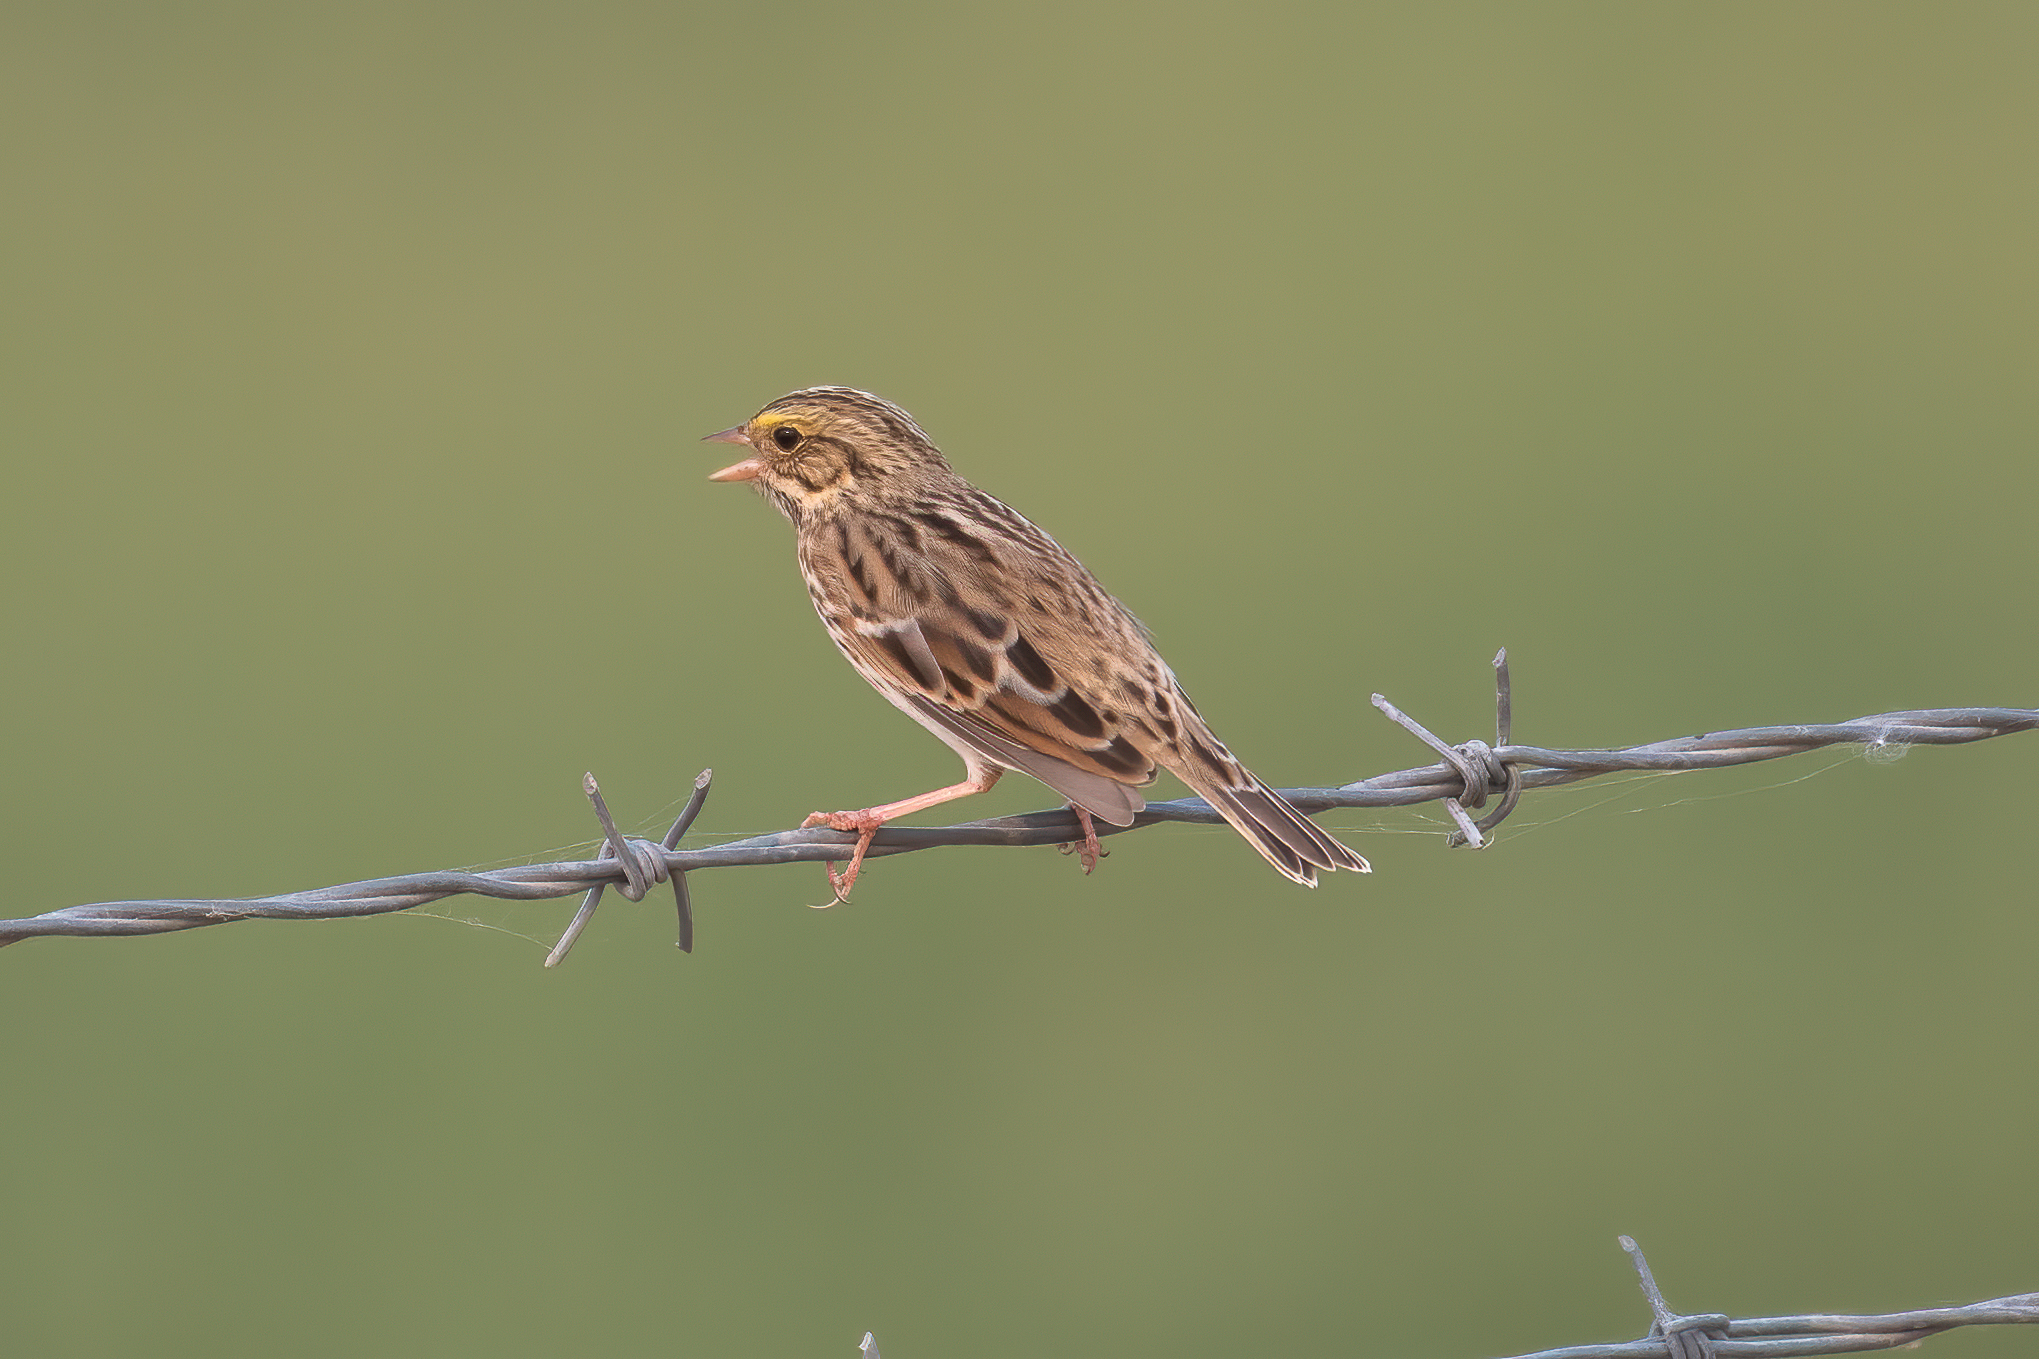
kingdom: Animalia
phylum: Chordata
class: Aves
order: Passeriformes
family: Passerellidae
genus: Passerculus
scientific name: Passerculus sandwichensis
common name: Savannah sparrow
